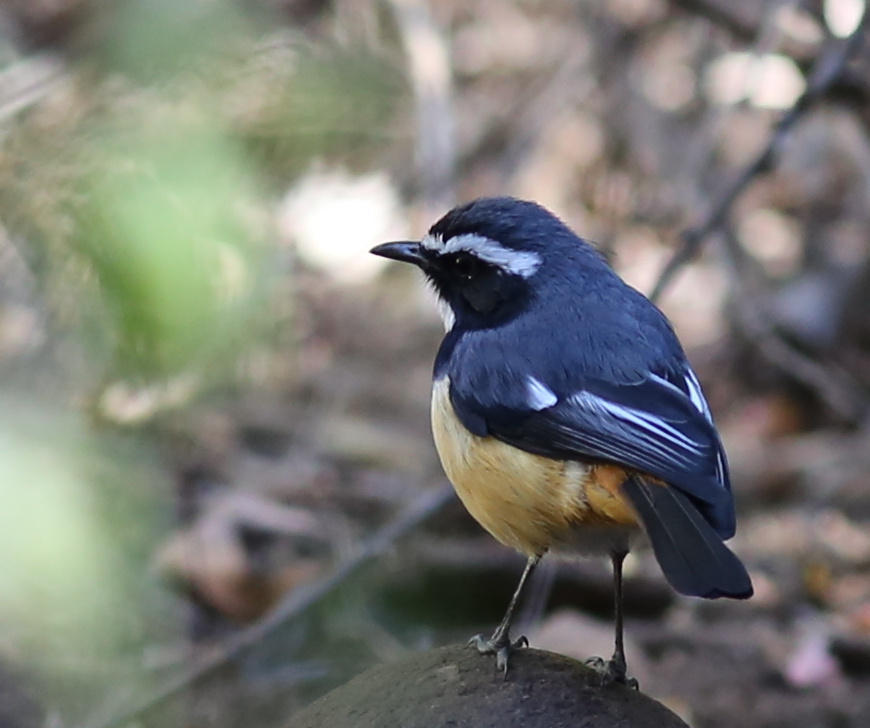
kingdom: Animalia
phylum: Chordata
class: Aves
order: Passeriformes
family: Muscicapidae
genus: Cossypha
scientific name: Cossypha humeralis
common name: White-throated robin-chat
